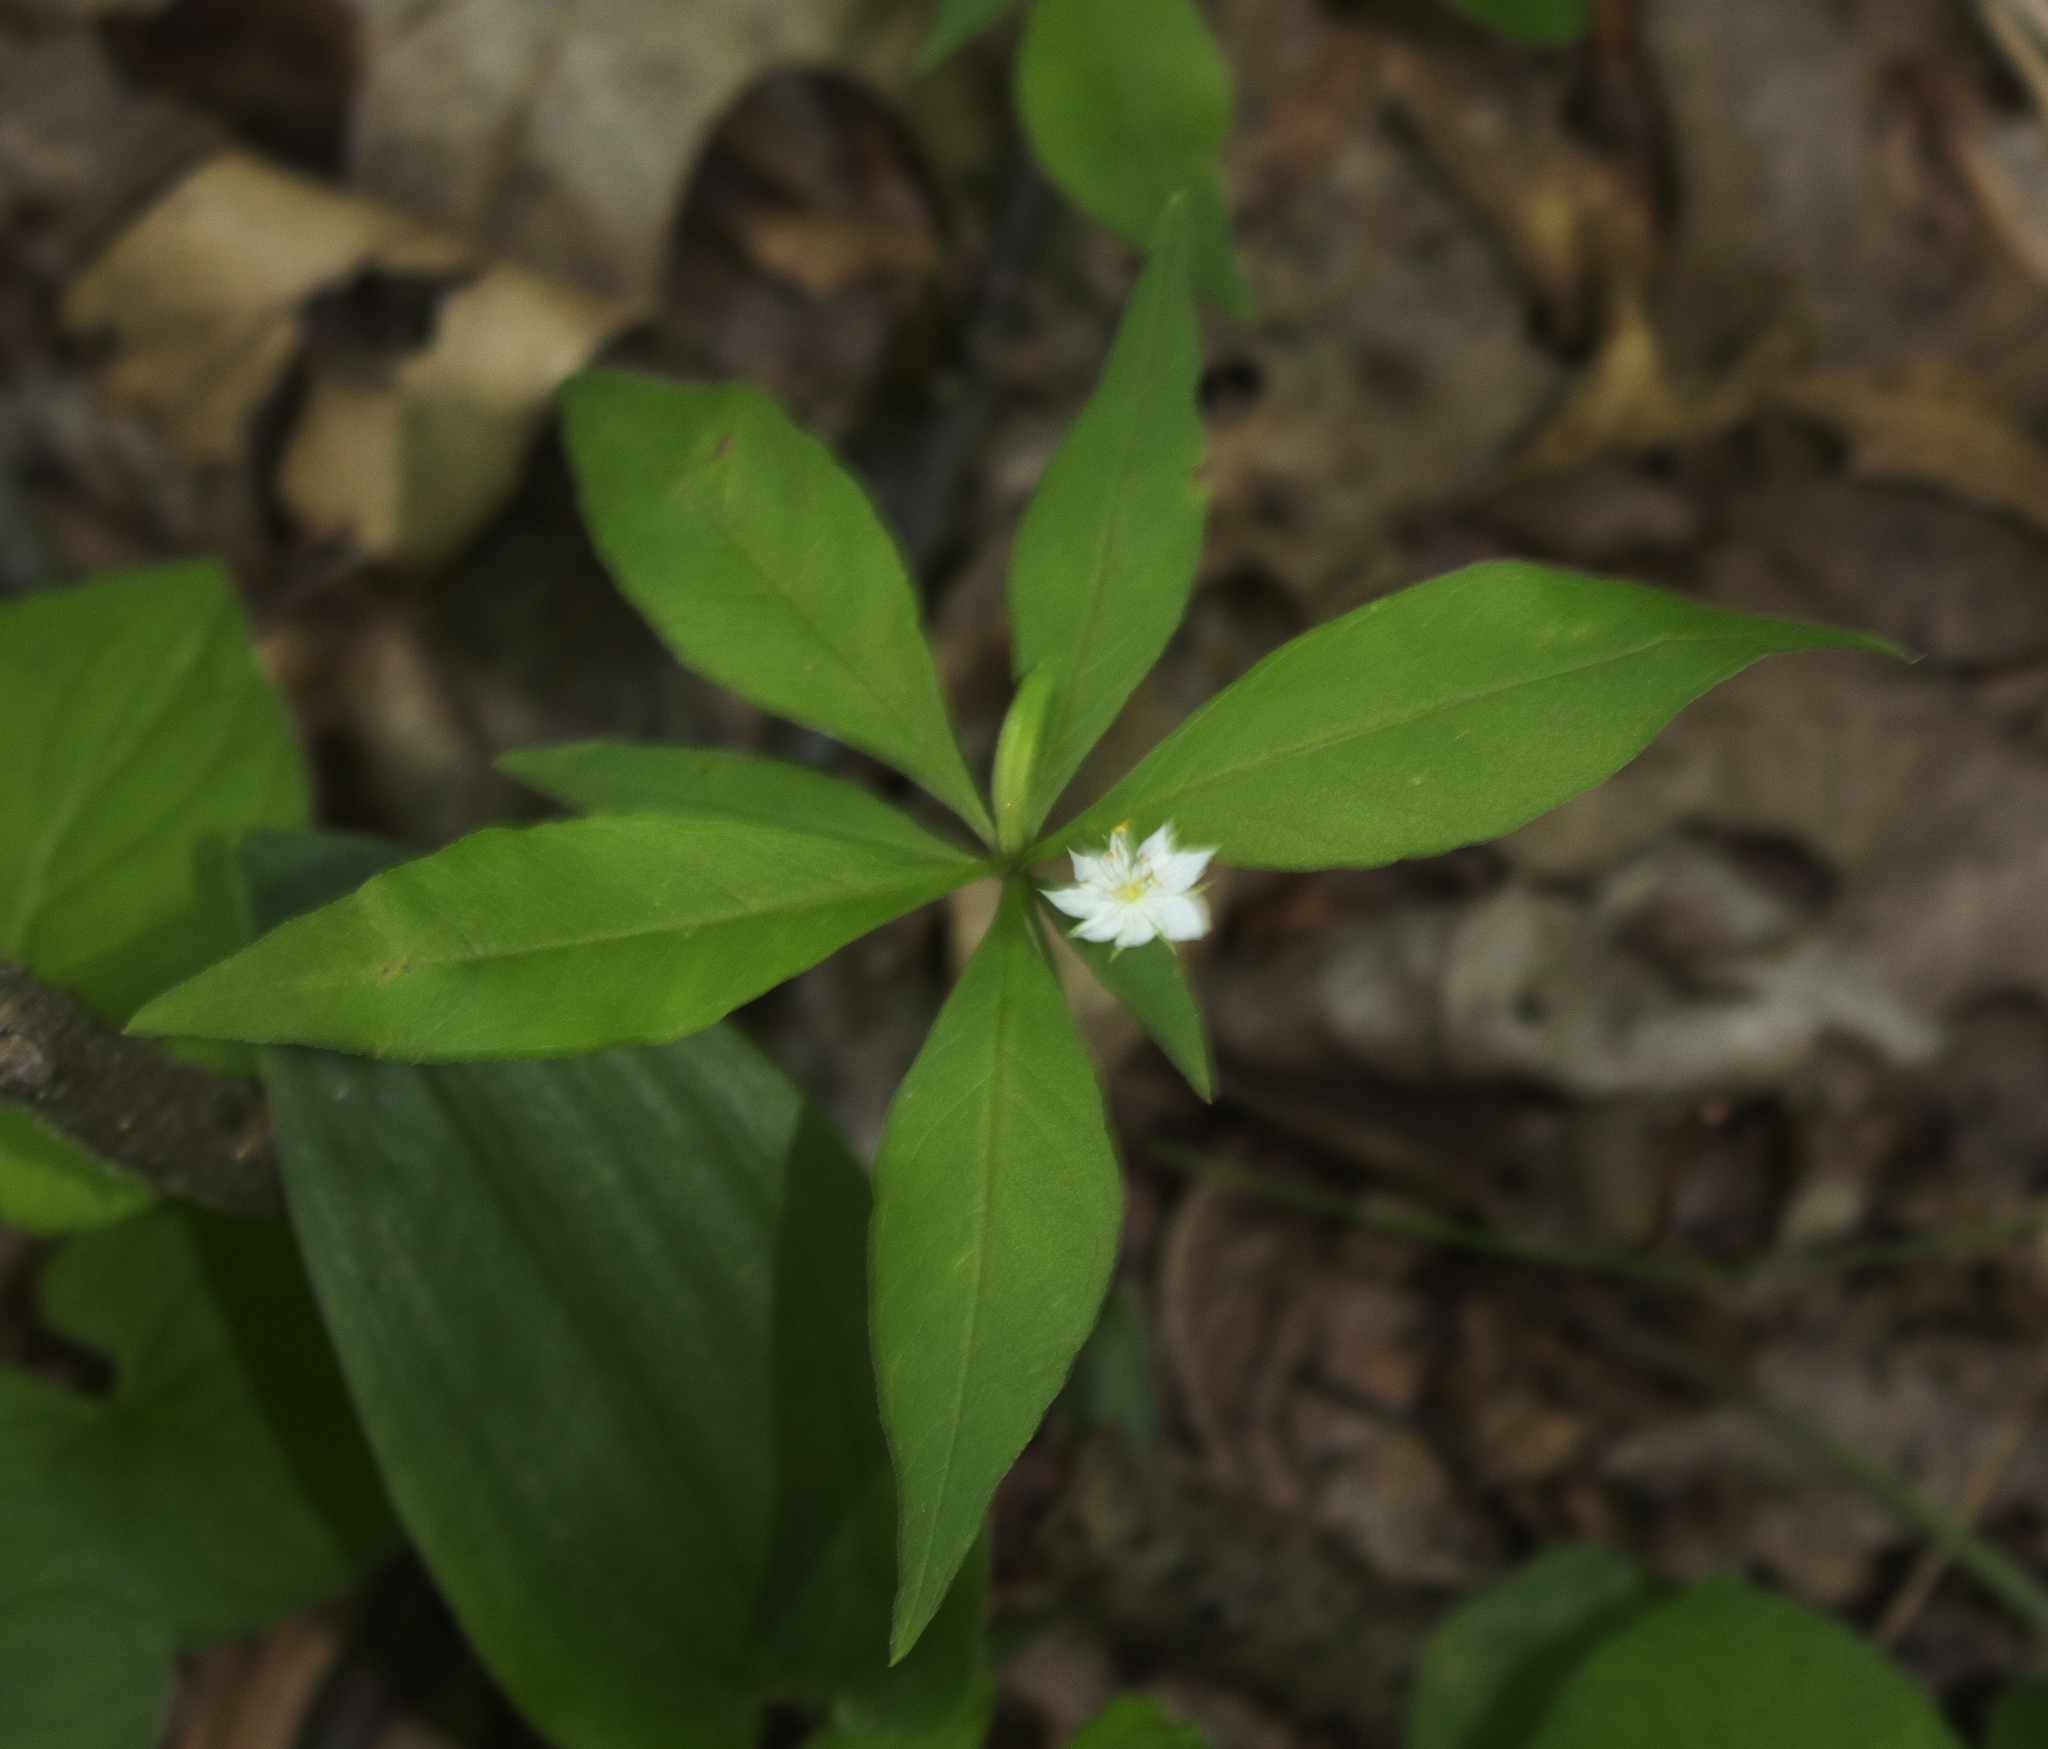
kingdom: Plantae
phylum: Tracheophyta
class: Magnoliopsida
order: Ericales
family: Primulaceae
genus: Lysimachia
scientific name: Lysimachia borealis
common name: American starflower
